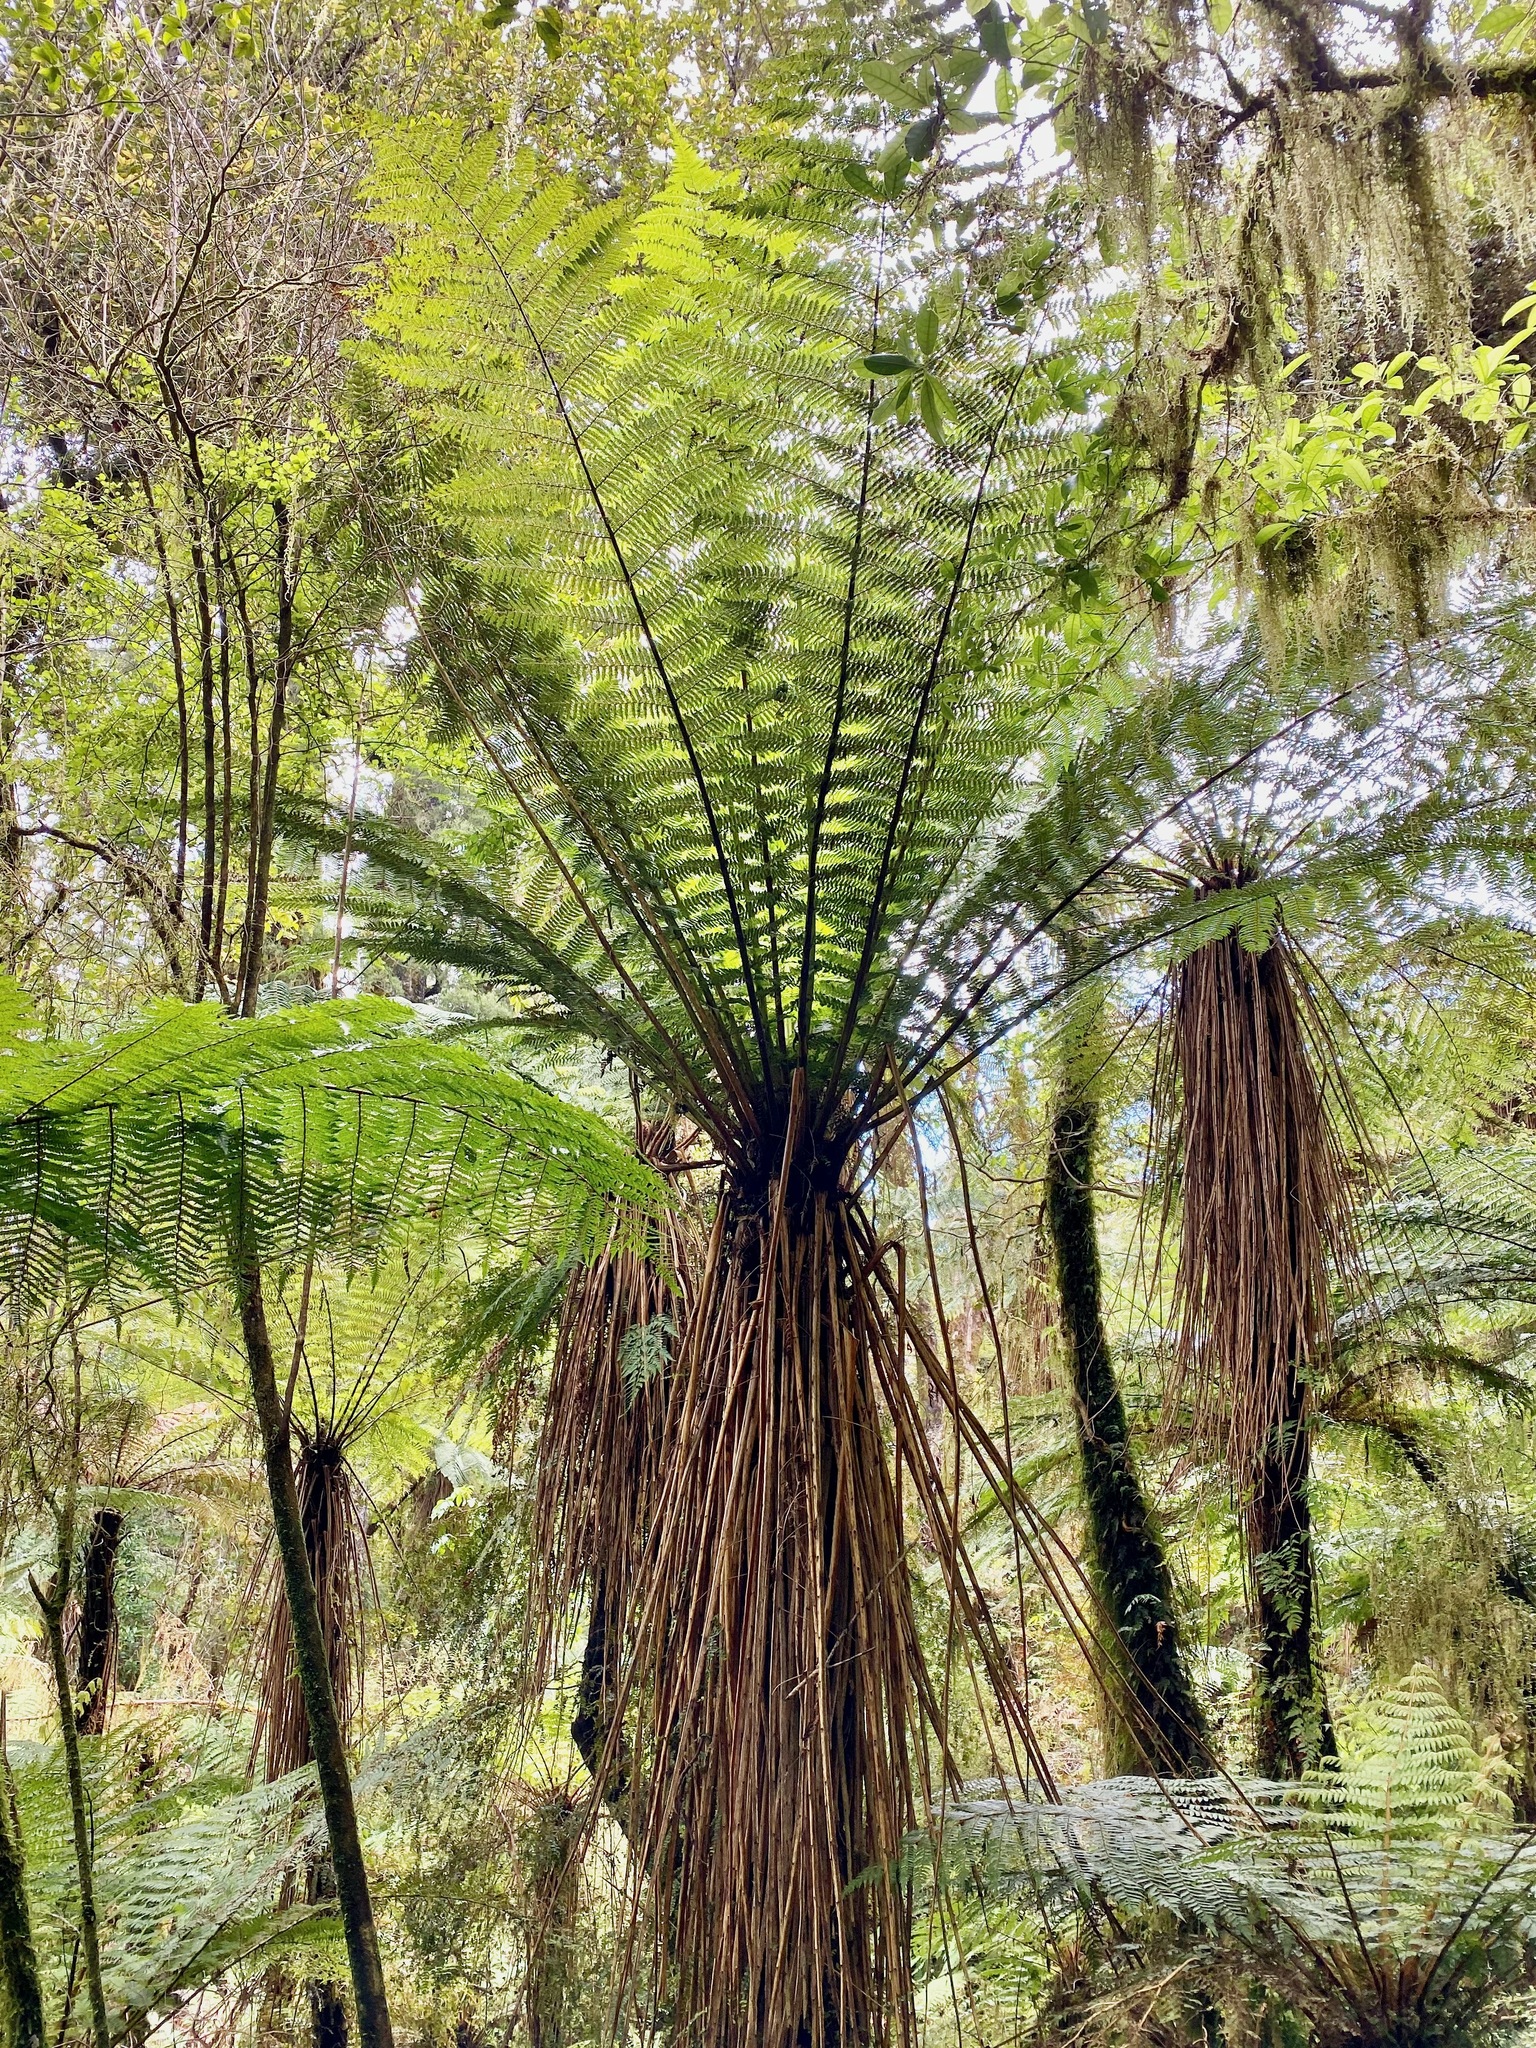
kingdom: Plantae
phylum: Tracheophyta
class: Polypodiopsida
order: Cyatheales
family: Cyatheaceae
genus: Alsophila
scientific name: Alsophila smithii
